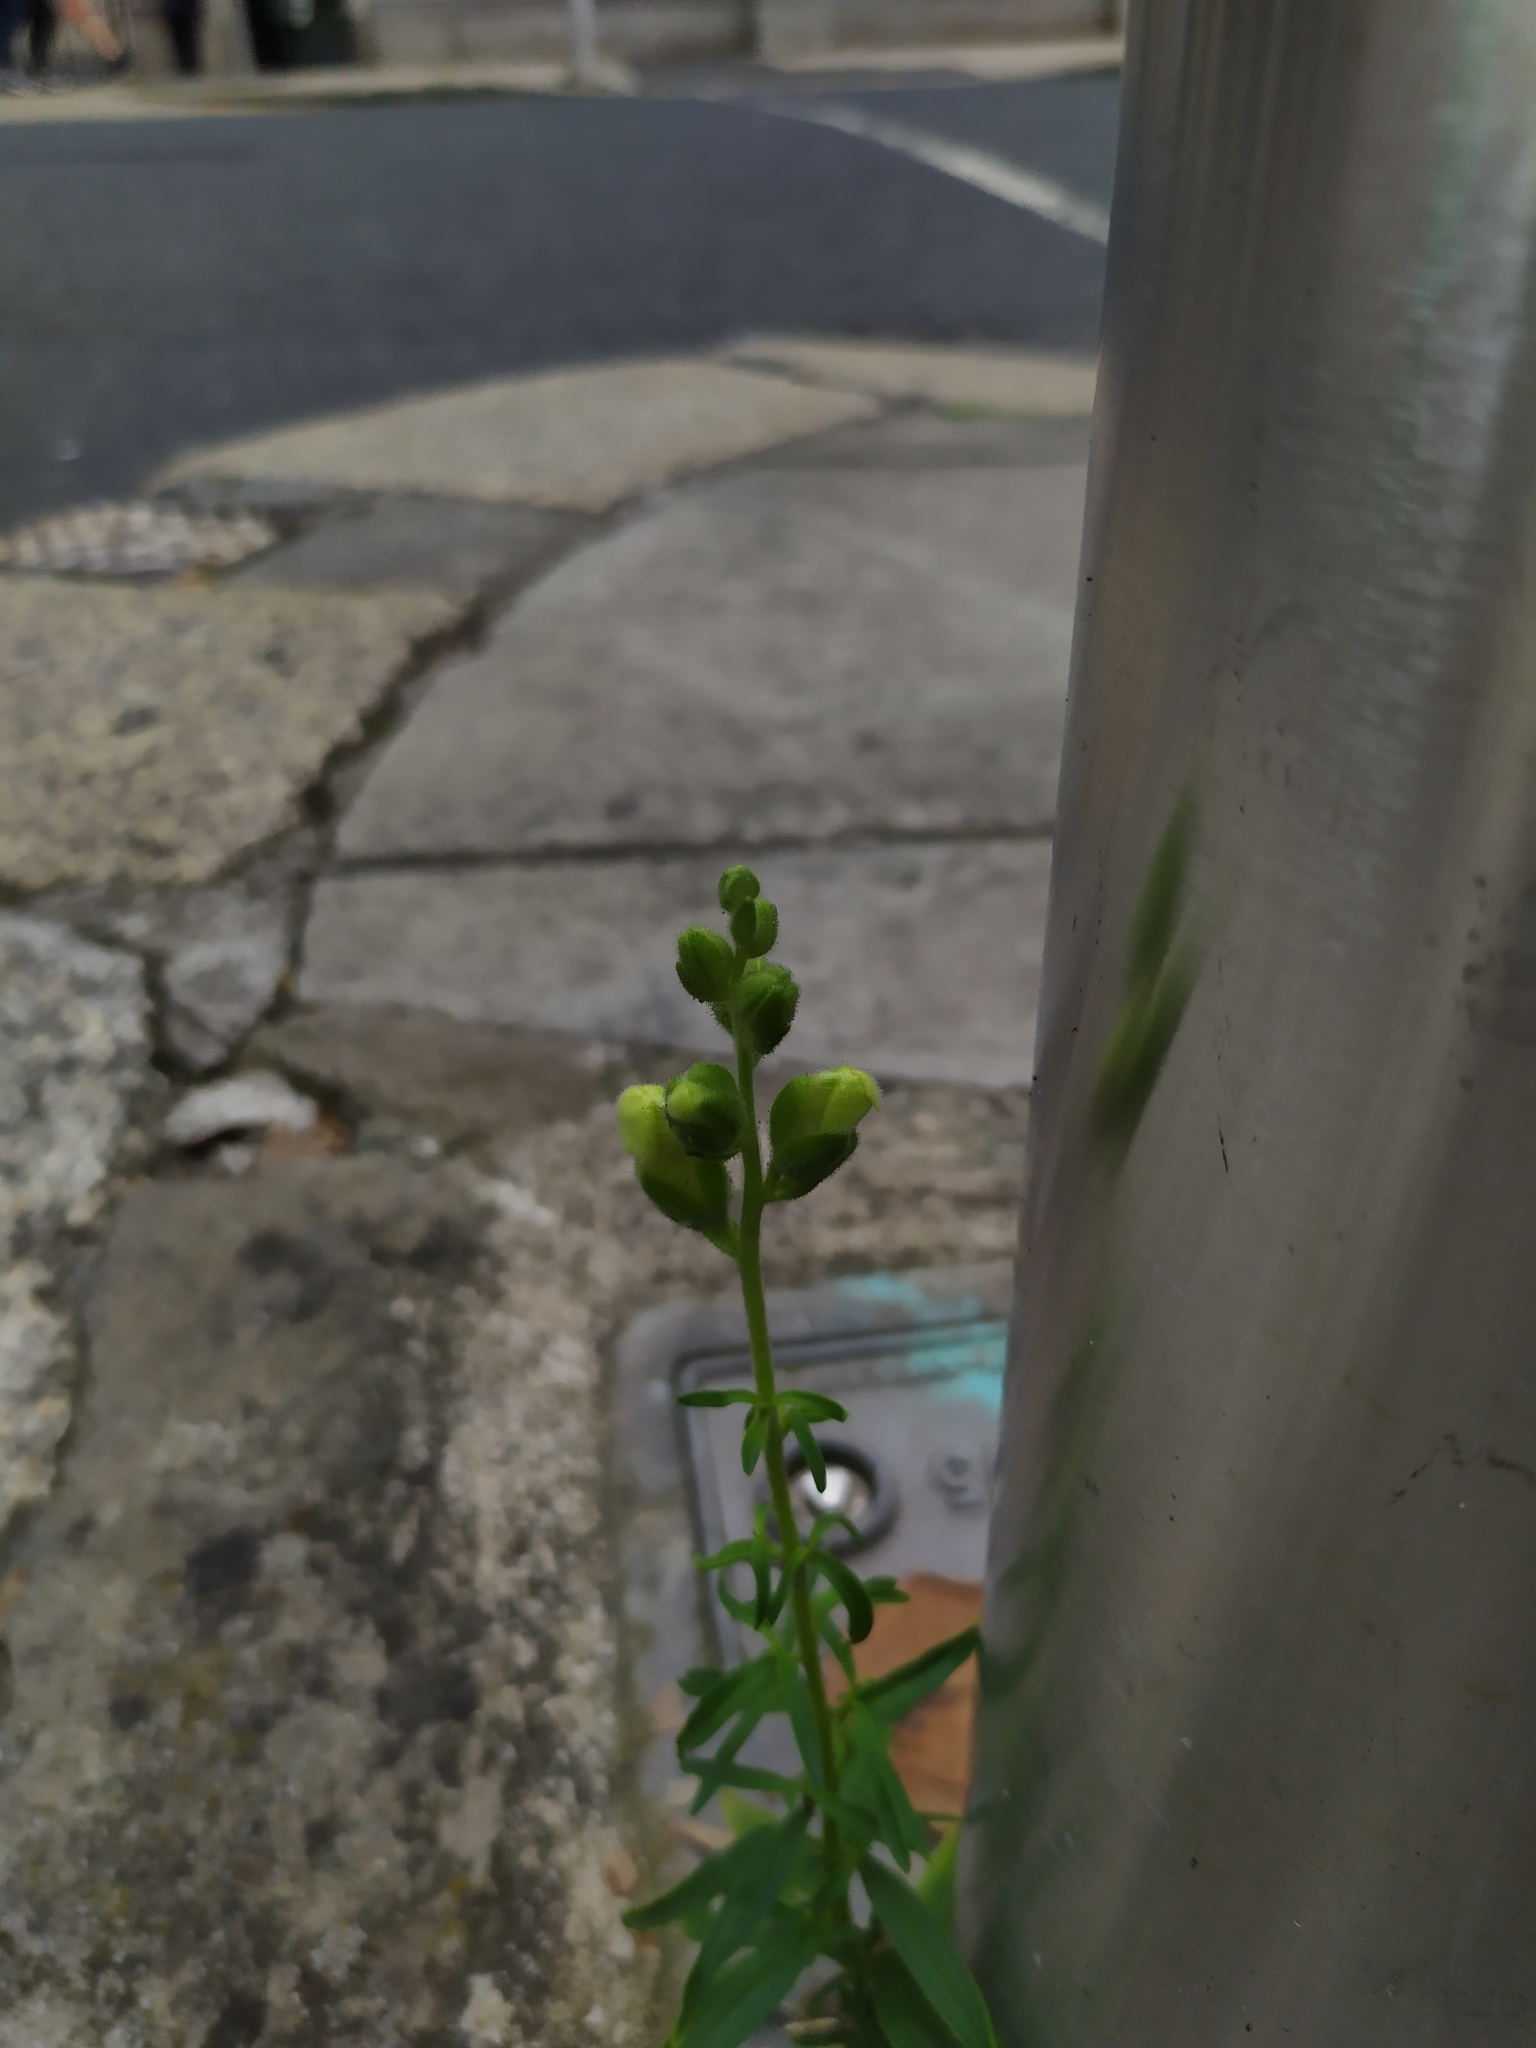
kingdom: Plantae
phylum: Tracheophyta
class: Magnoliopsida
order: Lamiales
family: Plantaginaceae
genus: Antirrhinum
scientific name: Antirrhinum majus
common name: Snapdragon
